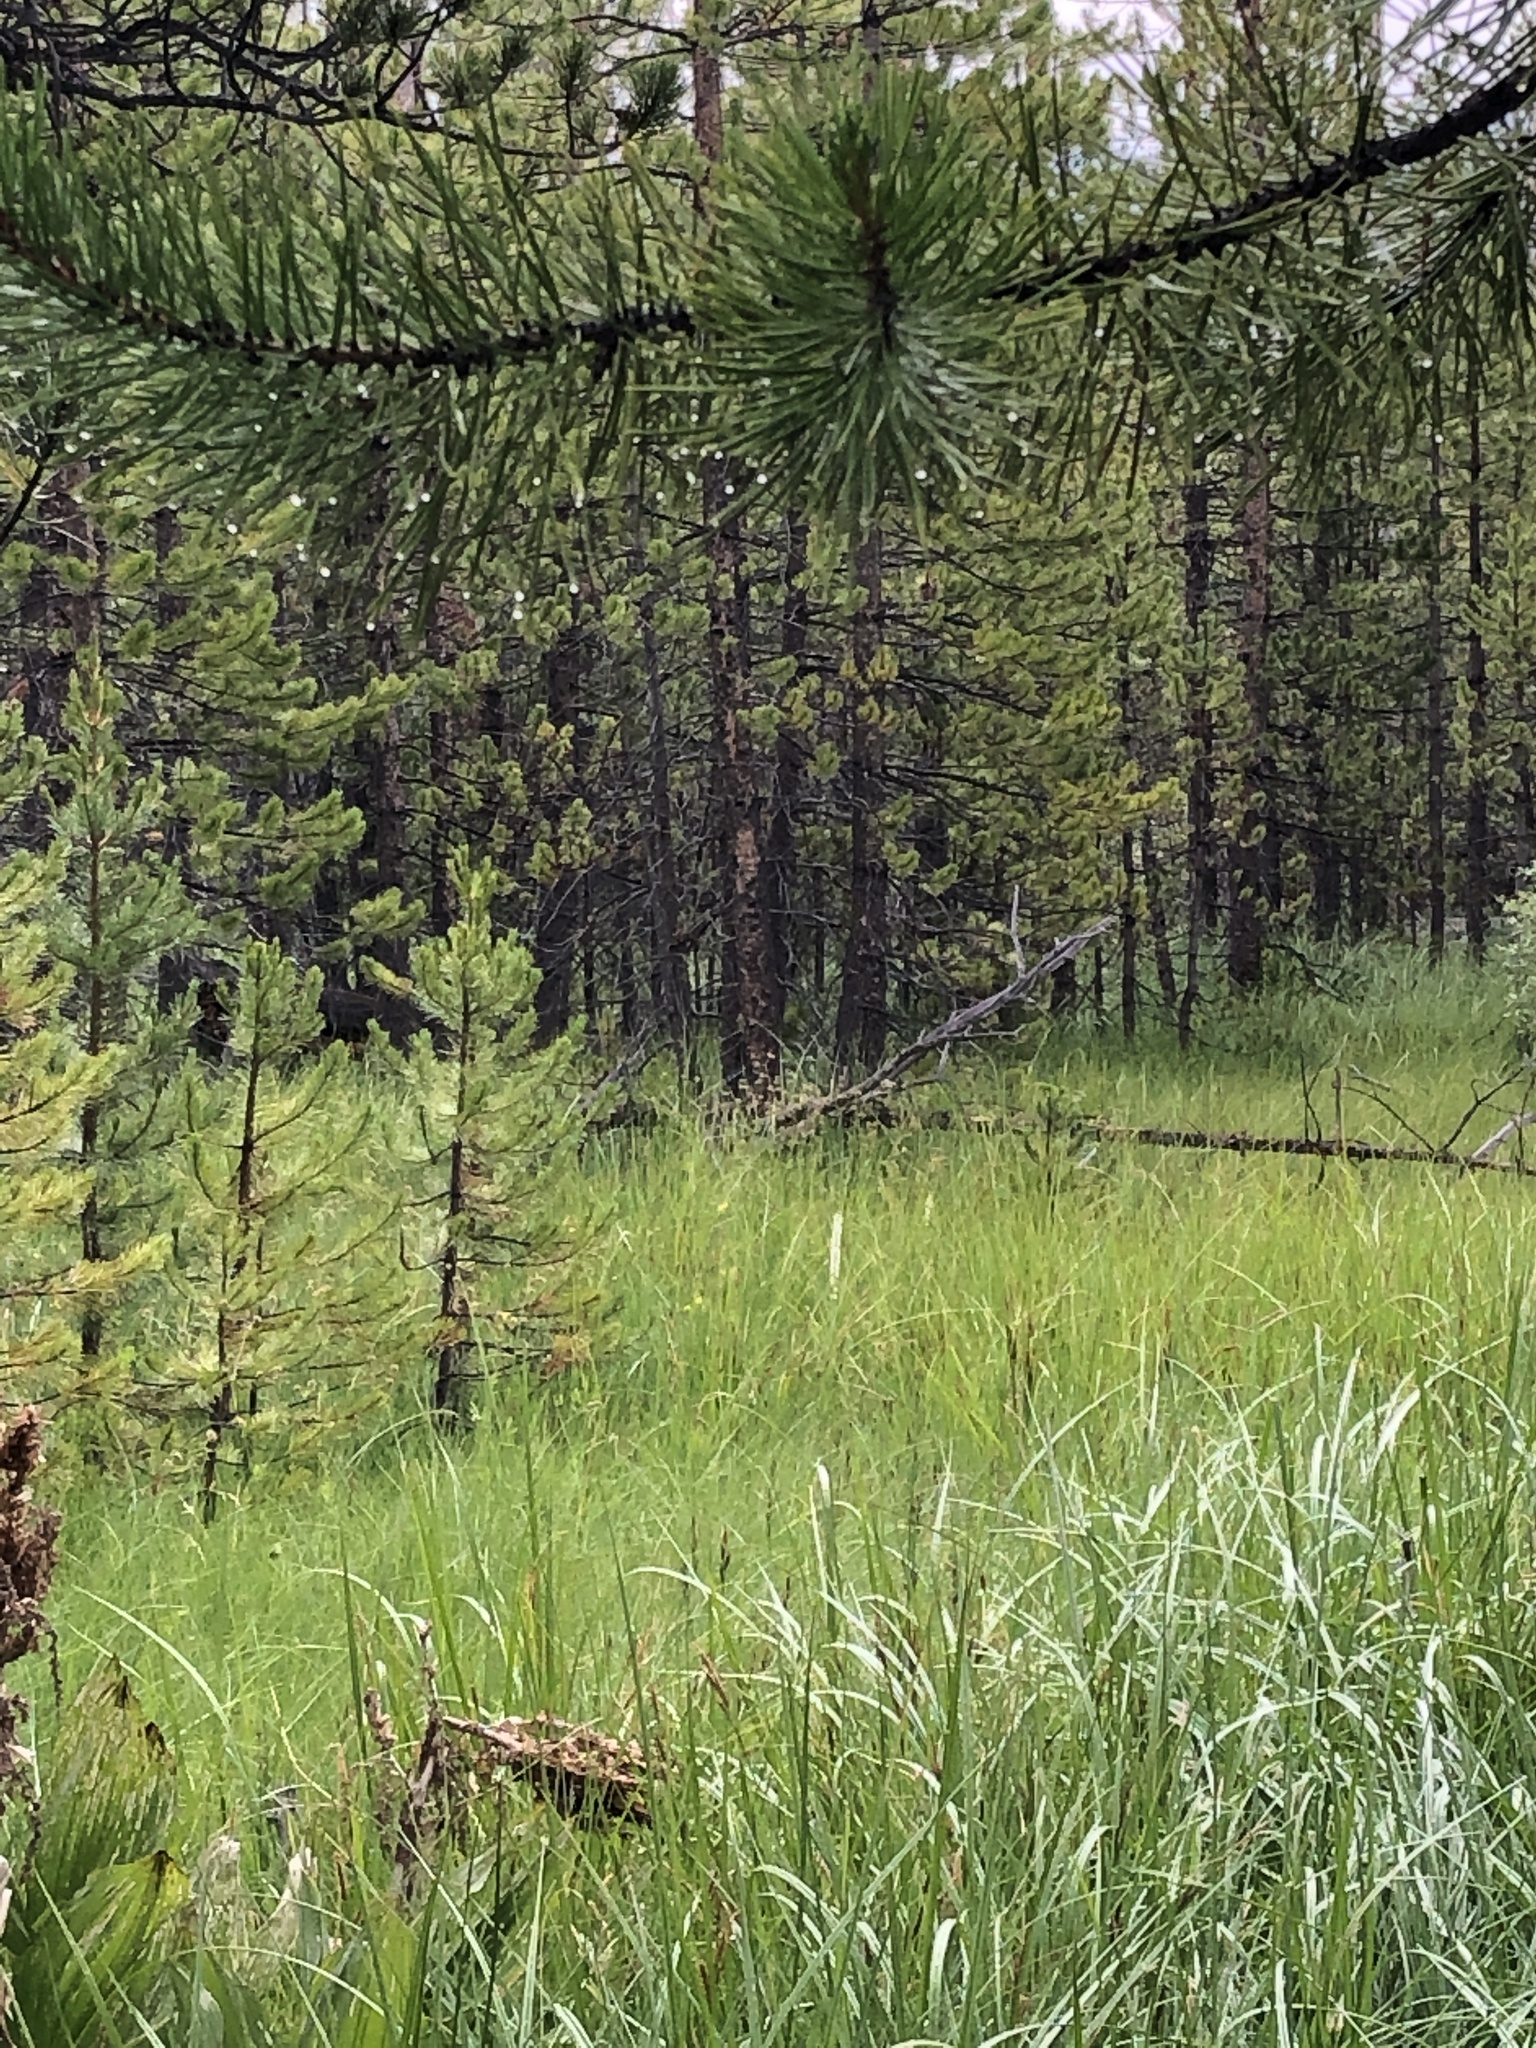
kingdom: Plantae
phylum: Tracheophyta
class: Liliopsida
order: Asparagales
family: Orchidaceae
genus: Platanthera
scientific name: Platanthera dilatata
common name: Bog candles
